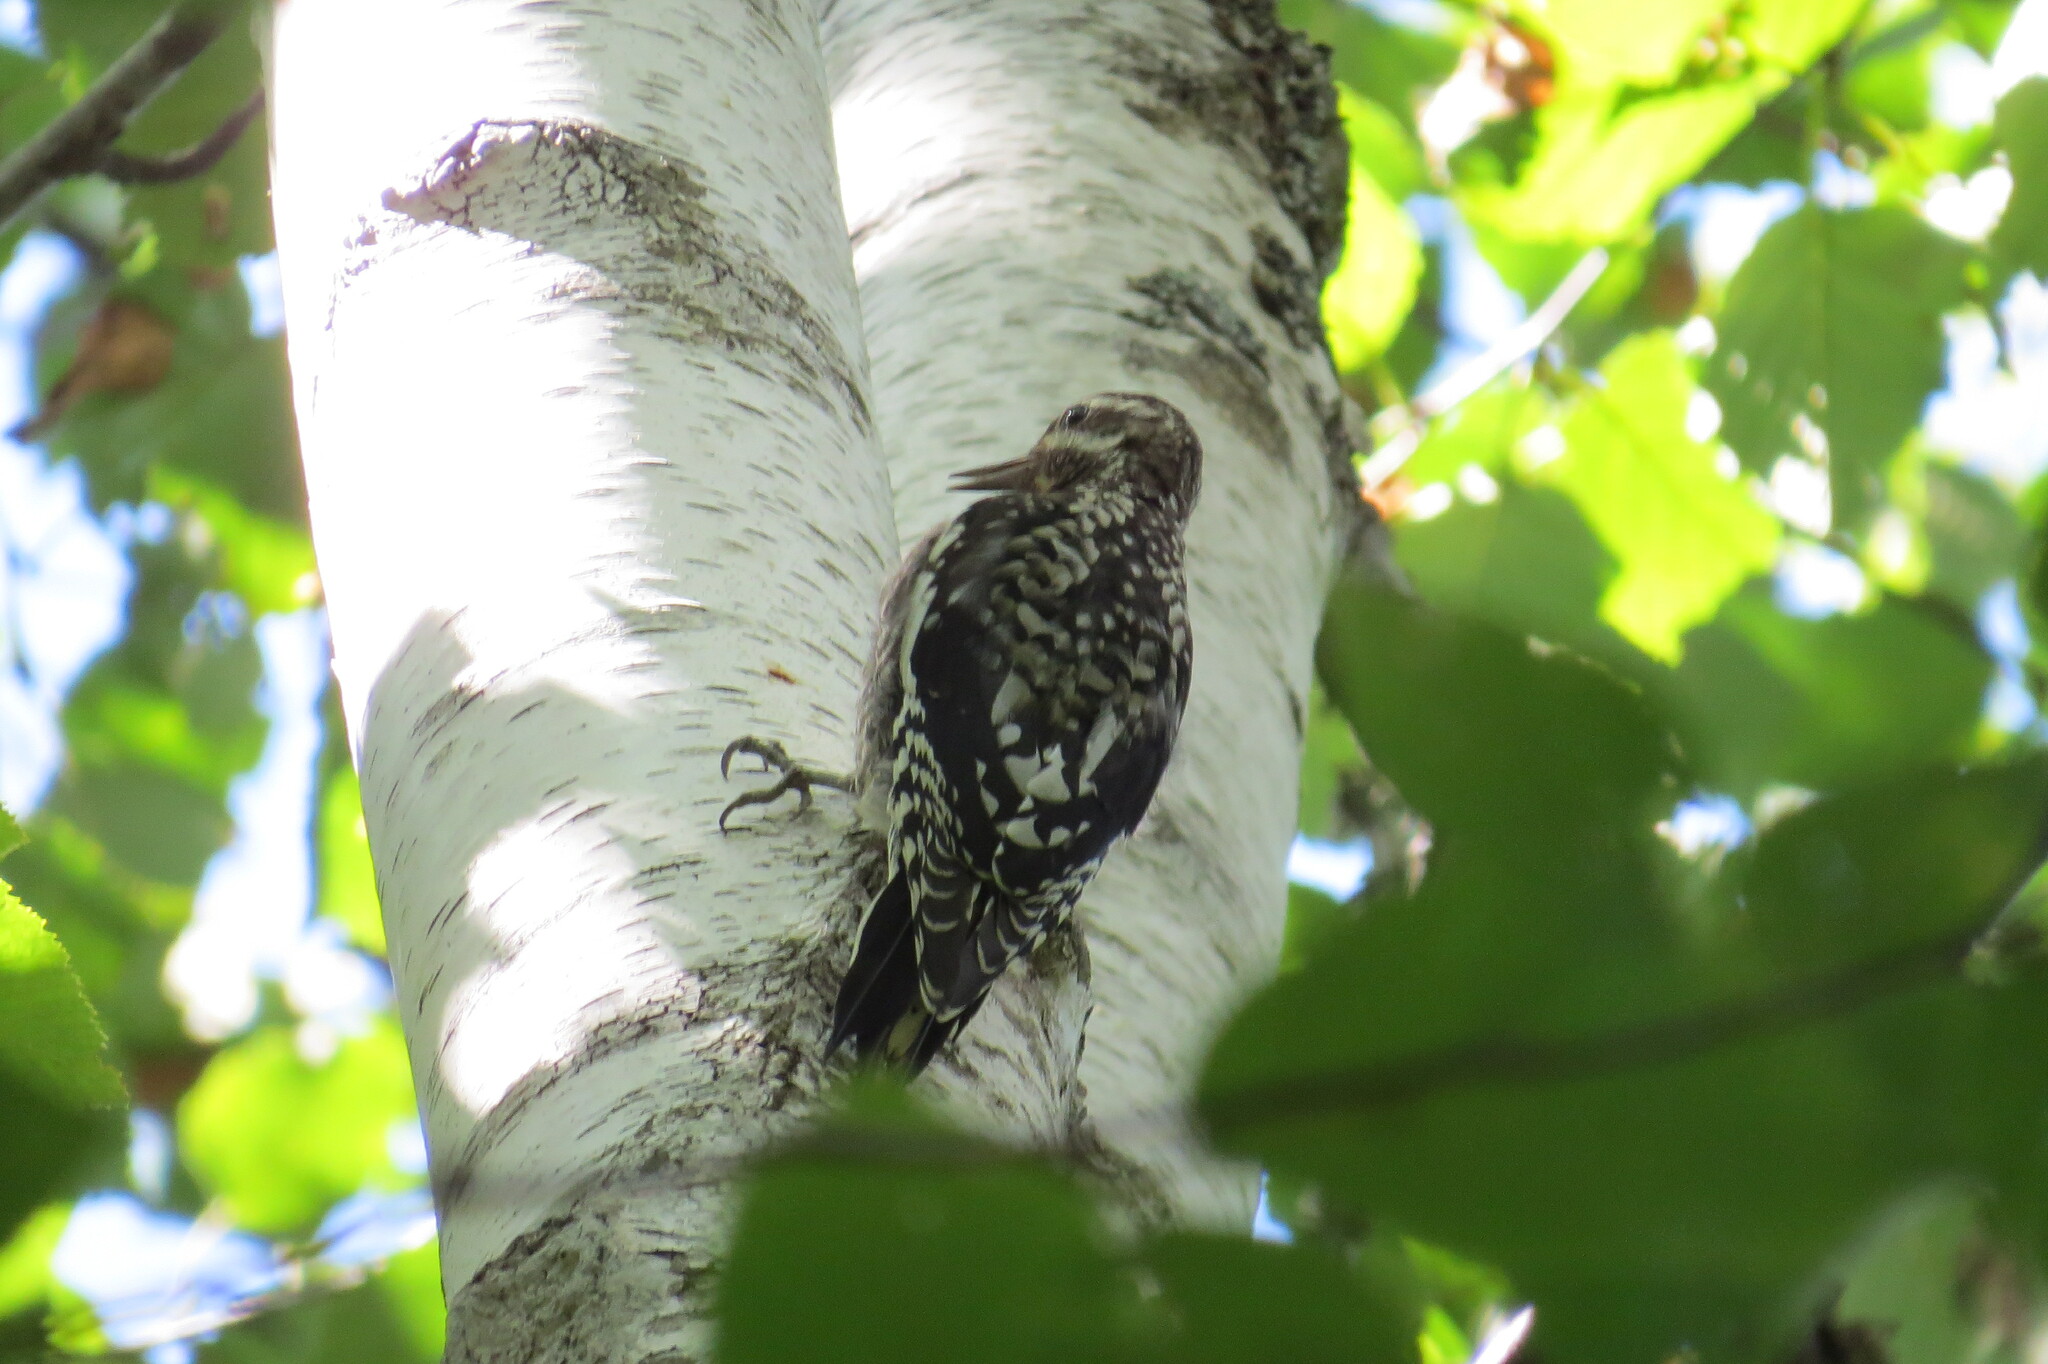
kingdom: Animalia
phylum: Chordata
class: Aves
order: Piciformes
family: Picidae
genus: Sphyrapicus
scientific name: Sphyrapicus varius
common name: Yellow-bellied sapsucker
